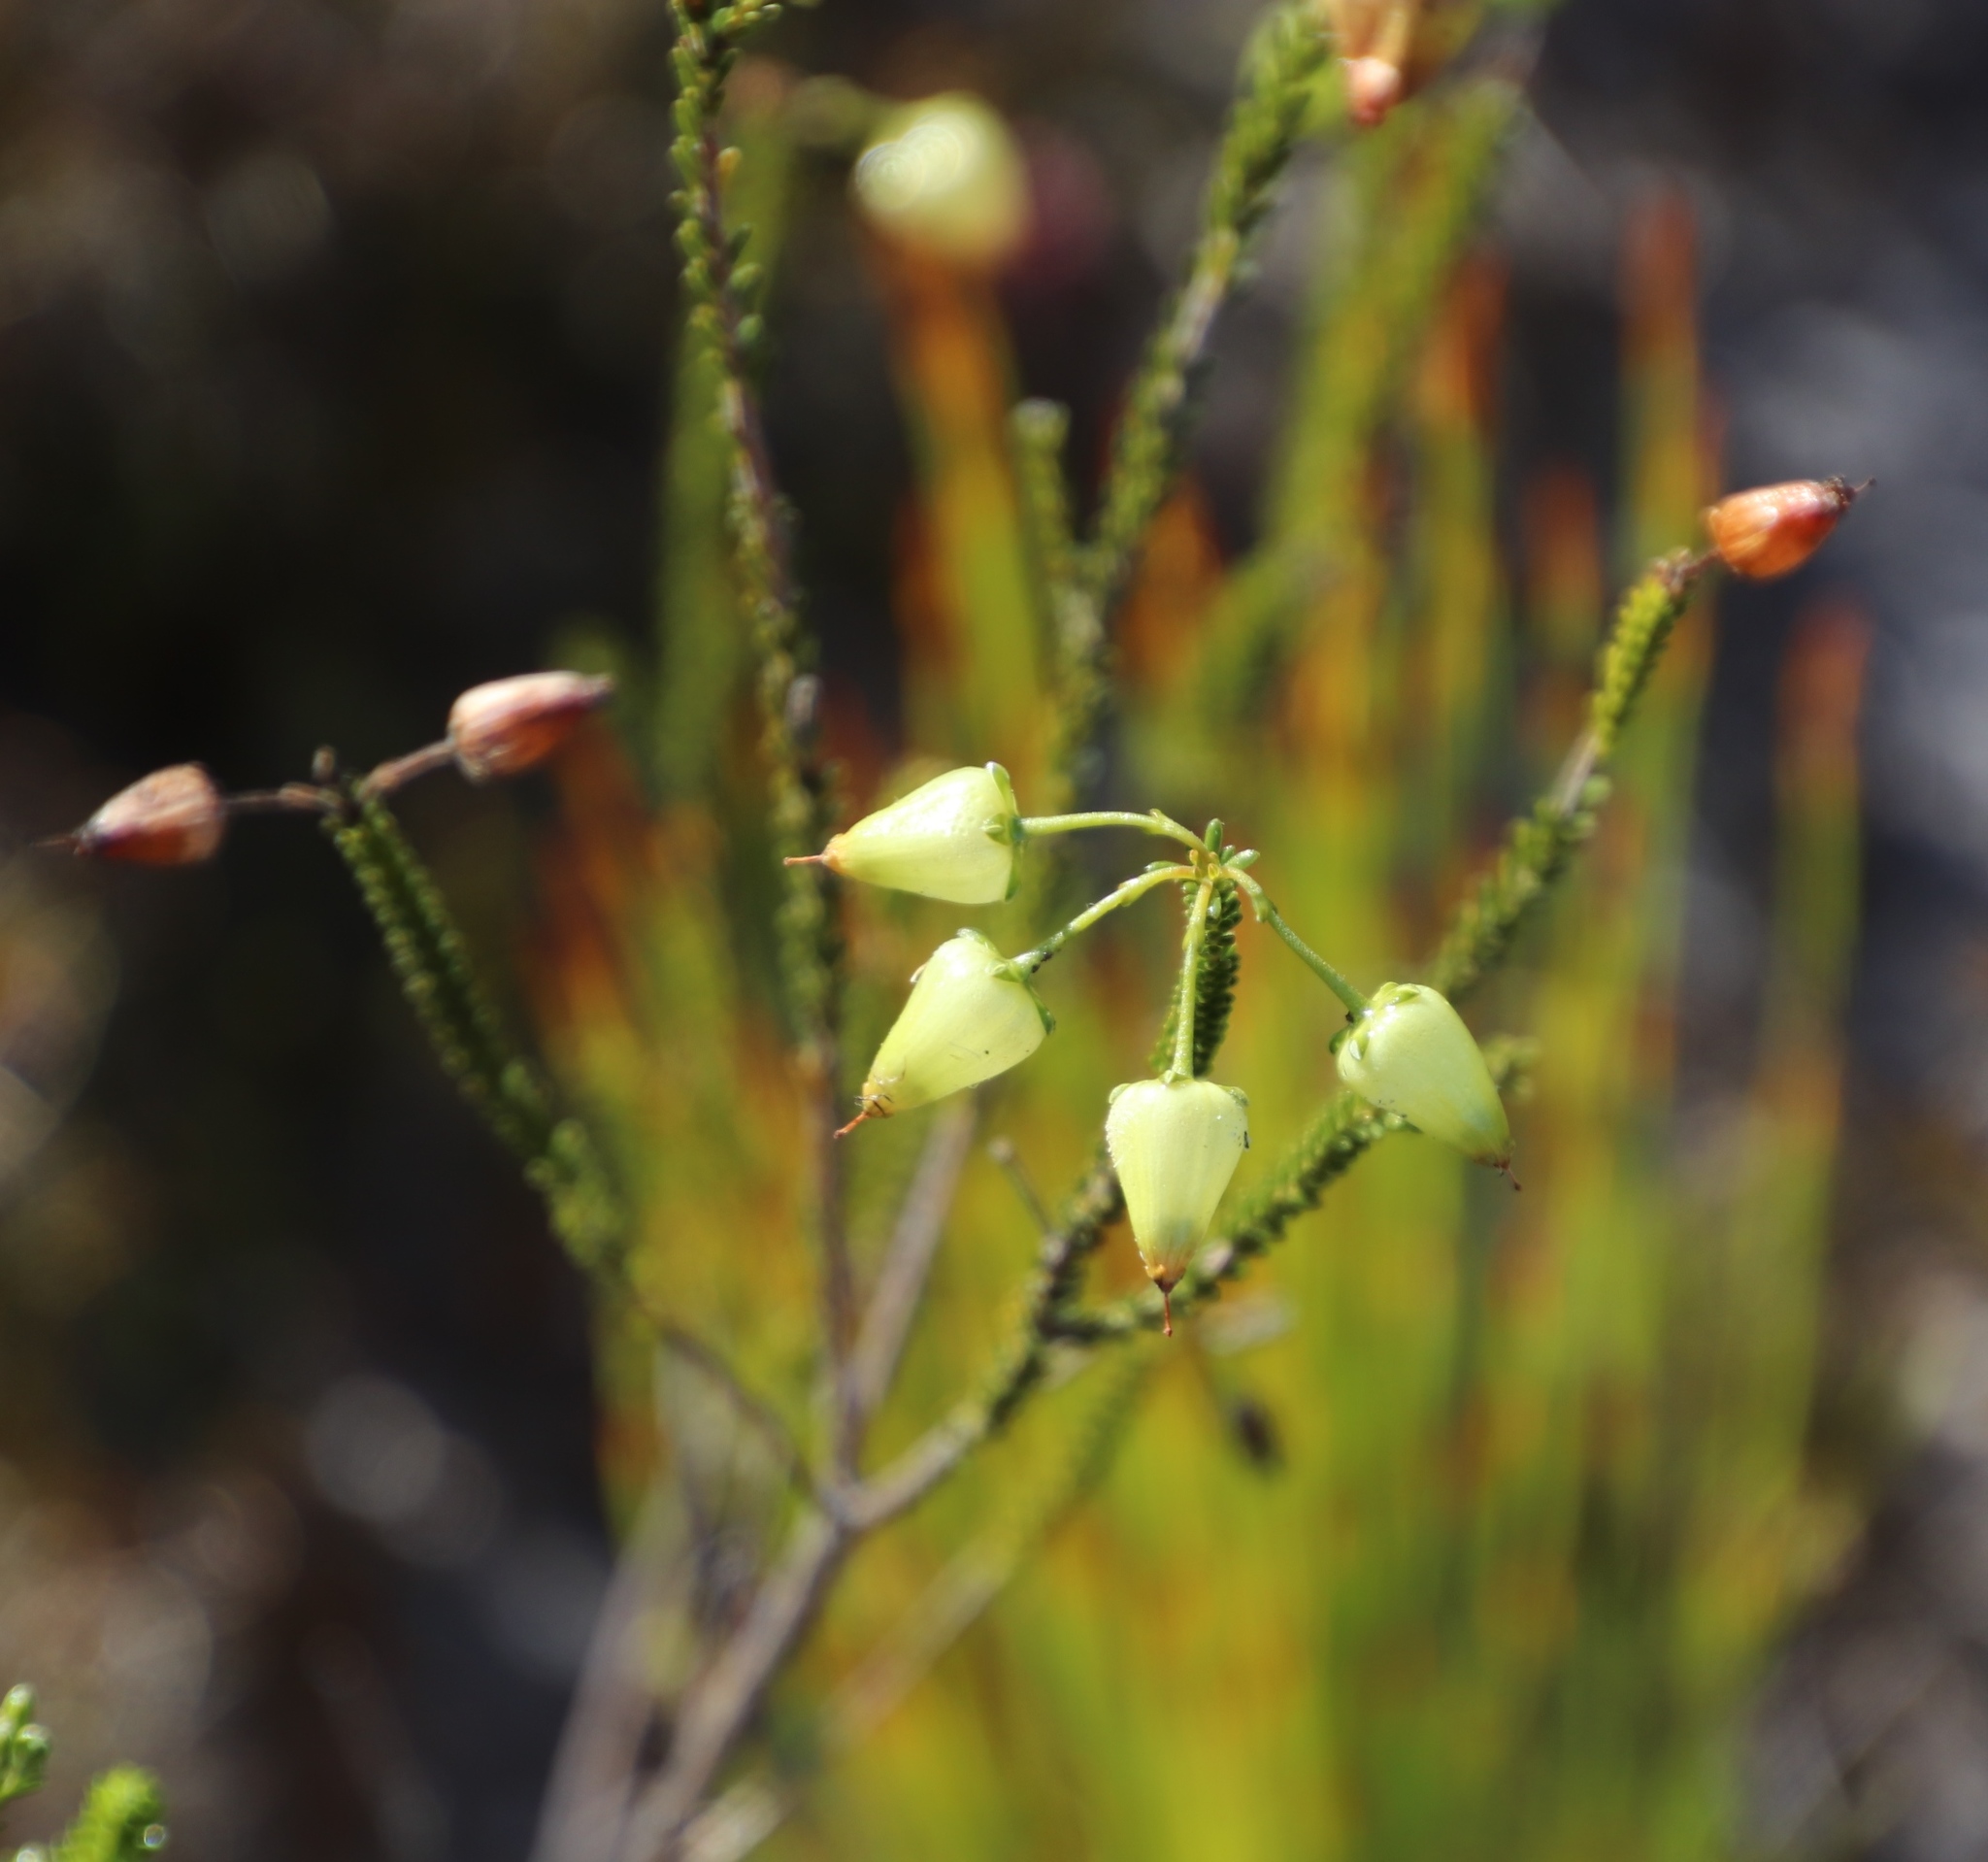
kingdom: Plantae
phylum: Tracheophyta
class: Magnoliopsida
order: Ericales
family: Ericaceae
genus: Erica
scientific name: Erica urna-viridis
